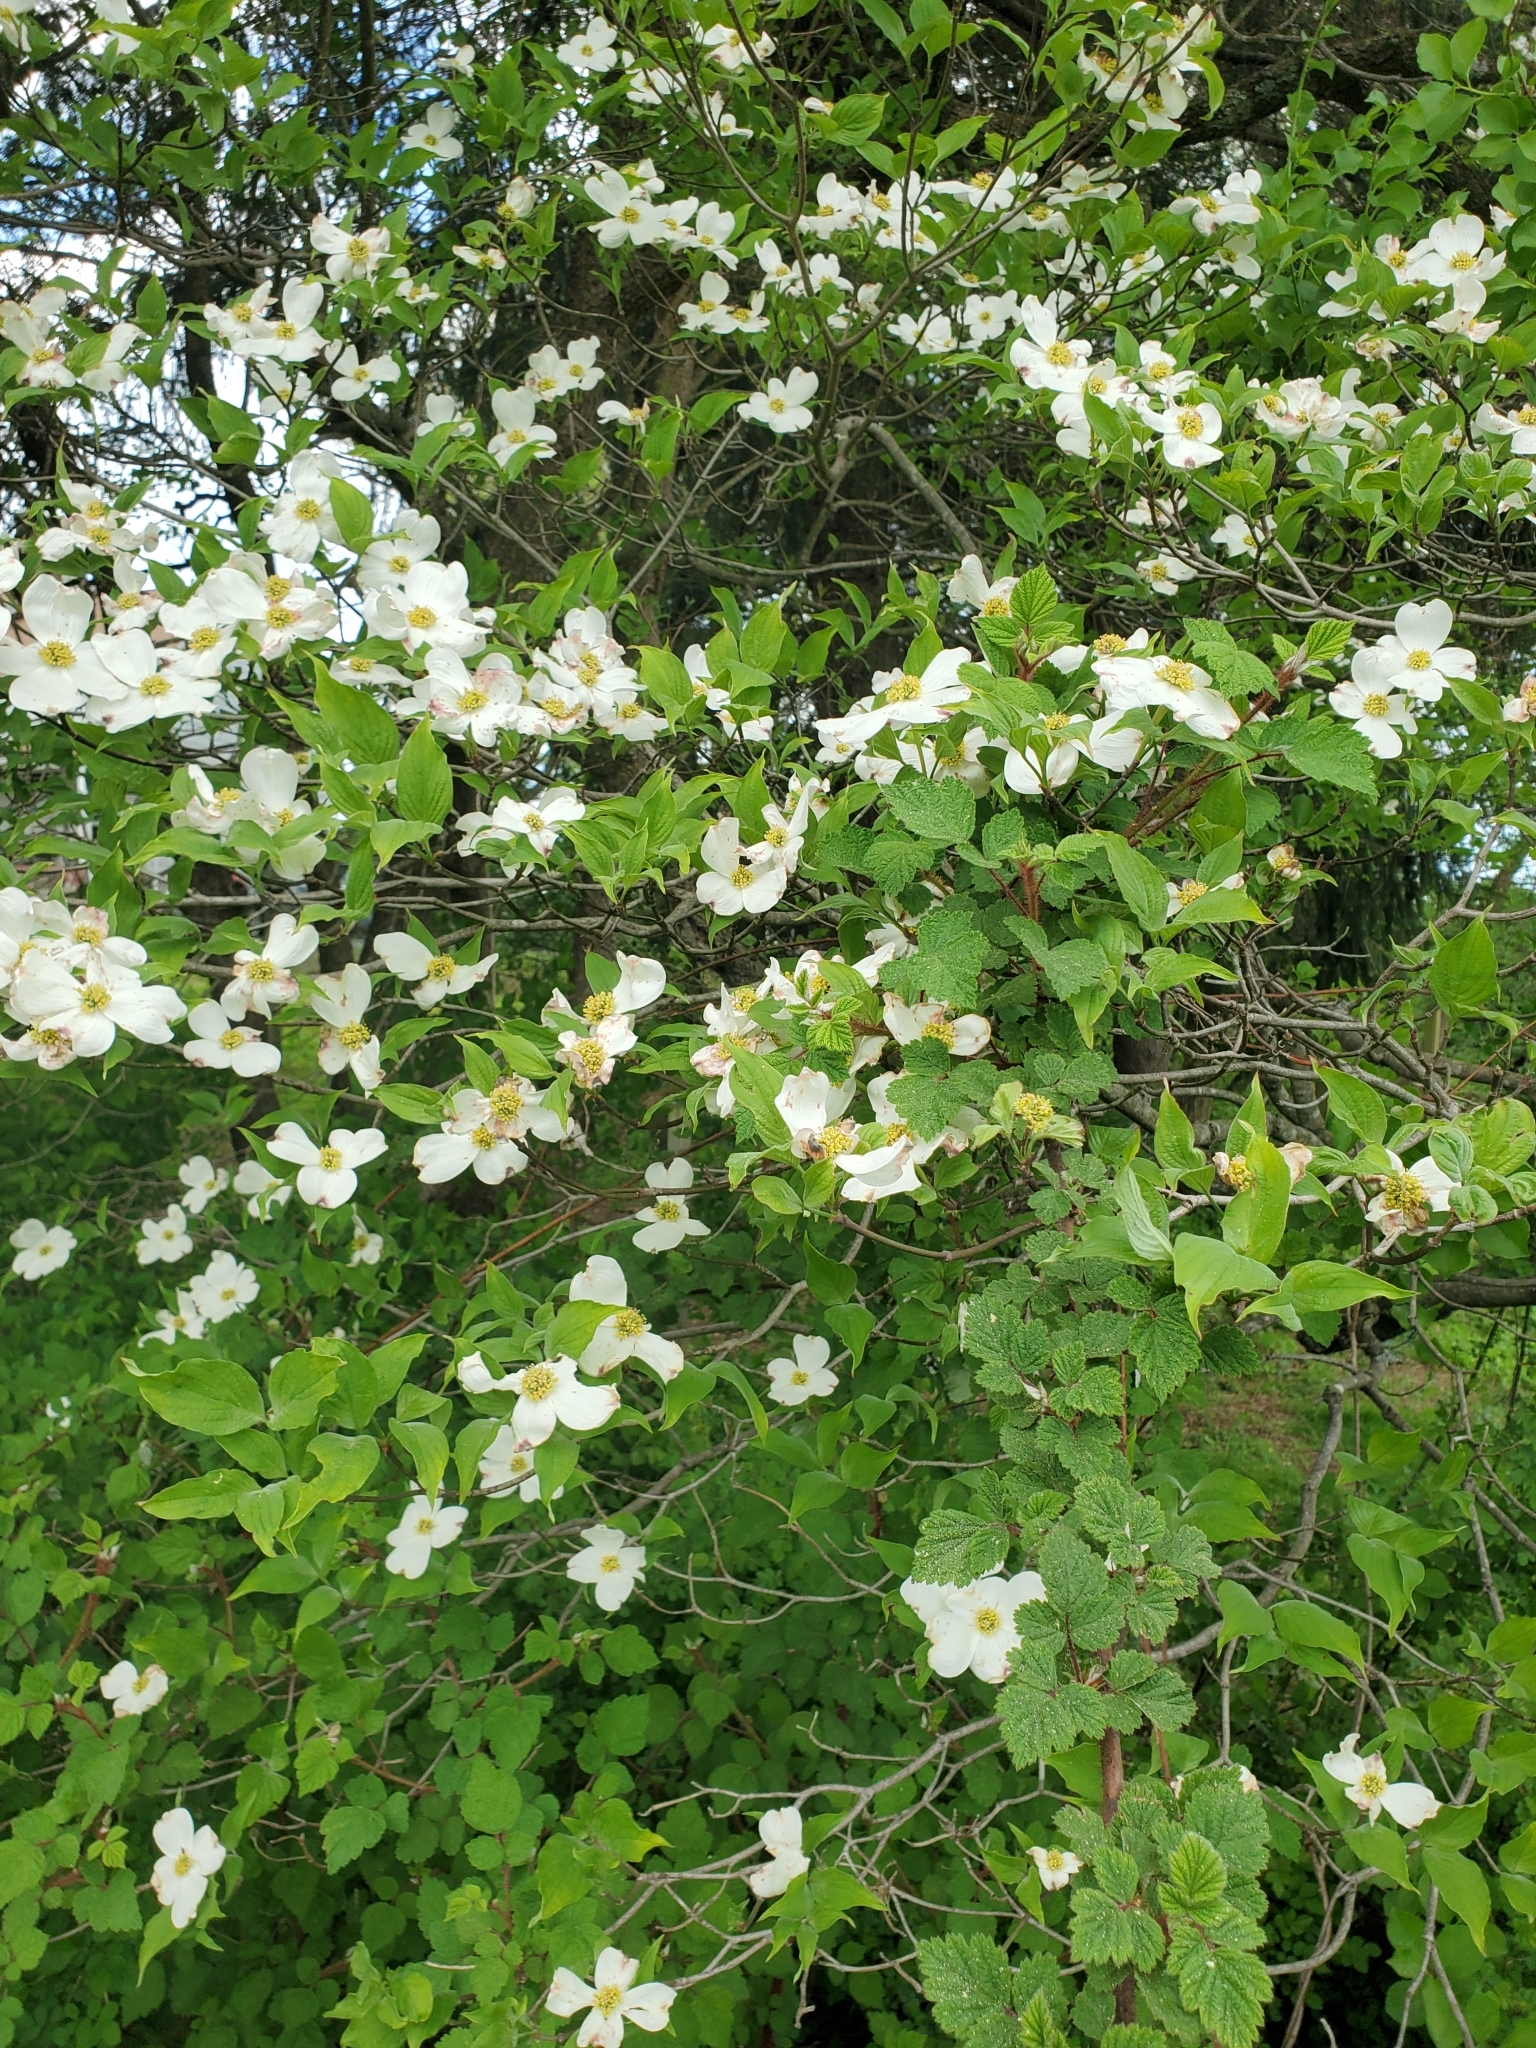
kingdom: Plantae
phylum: Tracheophyta
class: Magnoliopsida
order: Cornales
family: Cornaceae
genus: Cornus
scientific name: Cornus florida
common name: Flowering dogwood
